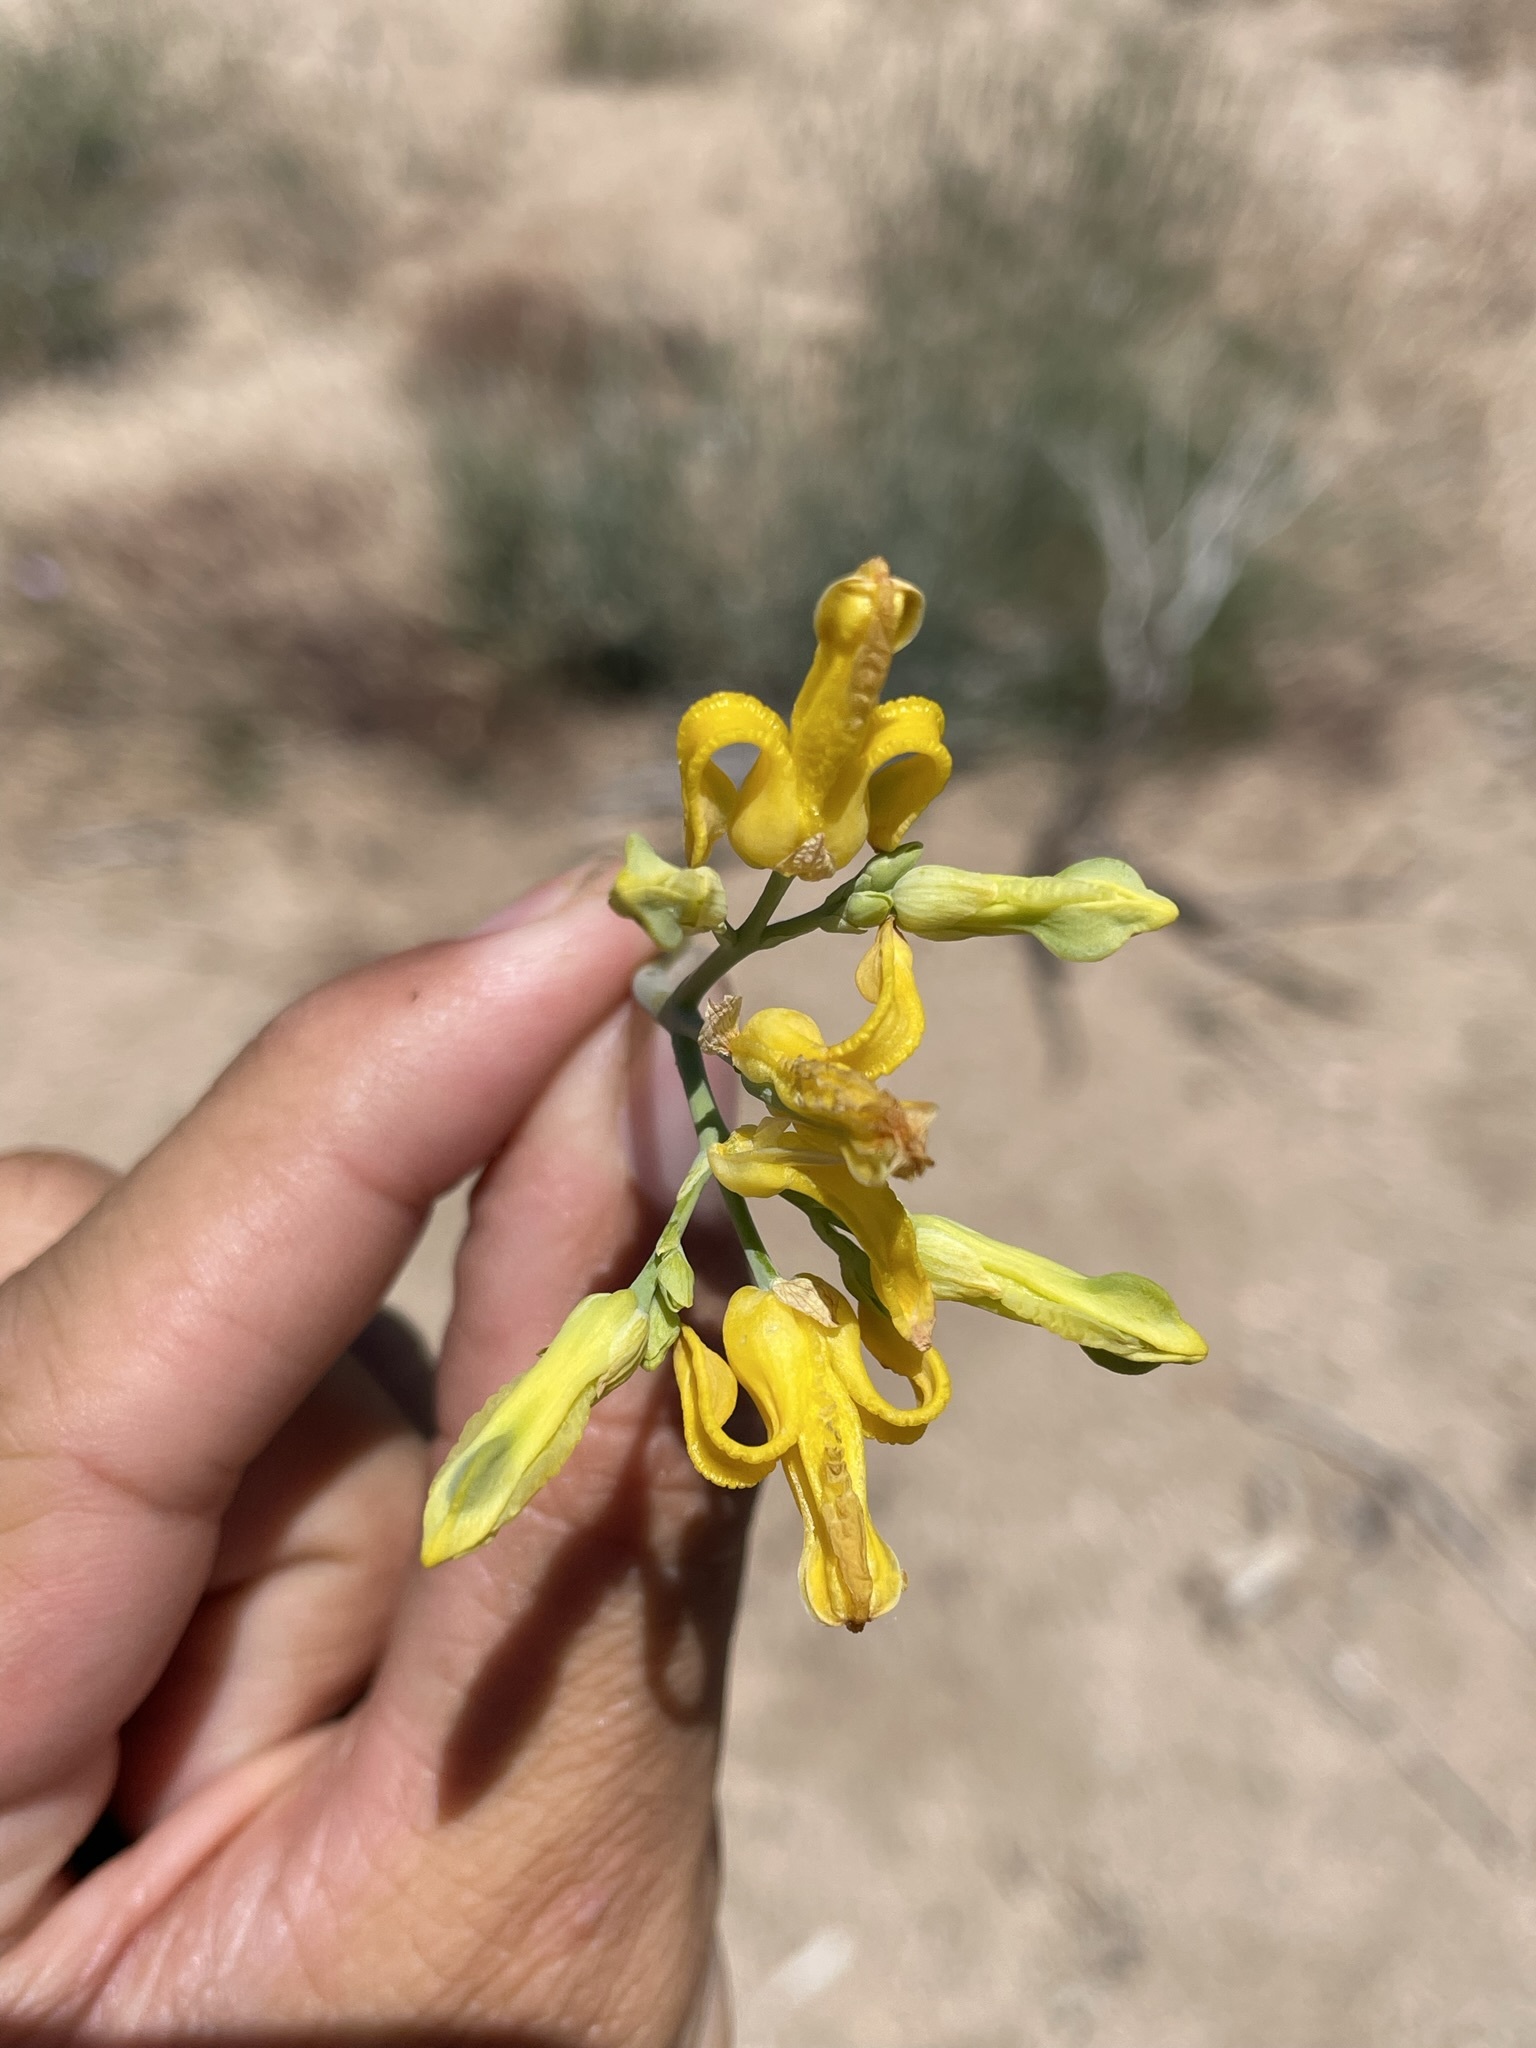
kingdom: Plantae
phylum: Tracheophyta
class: Magnoliopsida
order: Ranunculales
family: Papaveraceae
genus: Ehrendorferia
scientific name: Ehrendorferia chrysantha
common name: Golden eardrops
